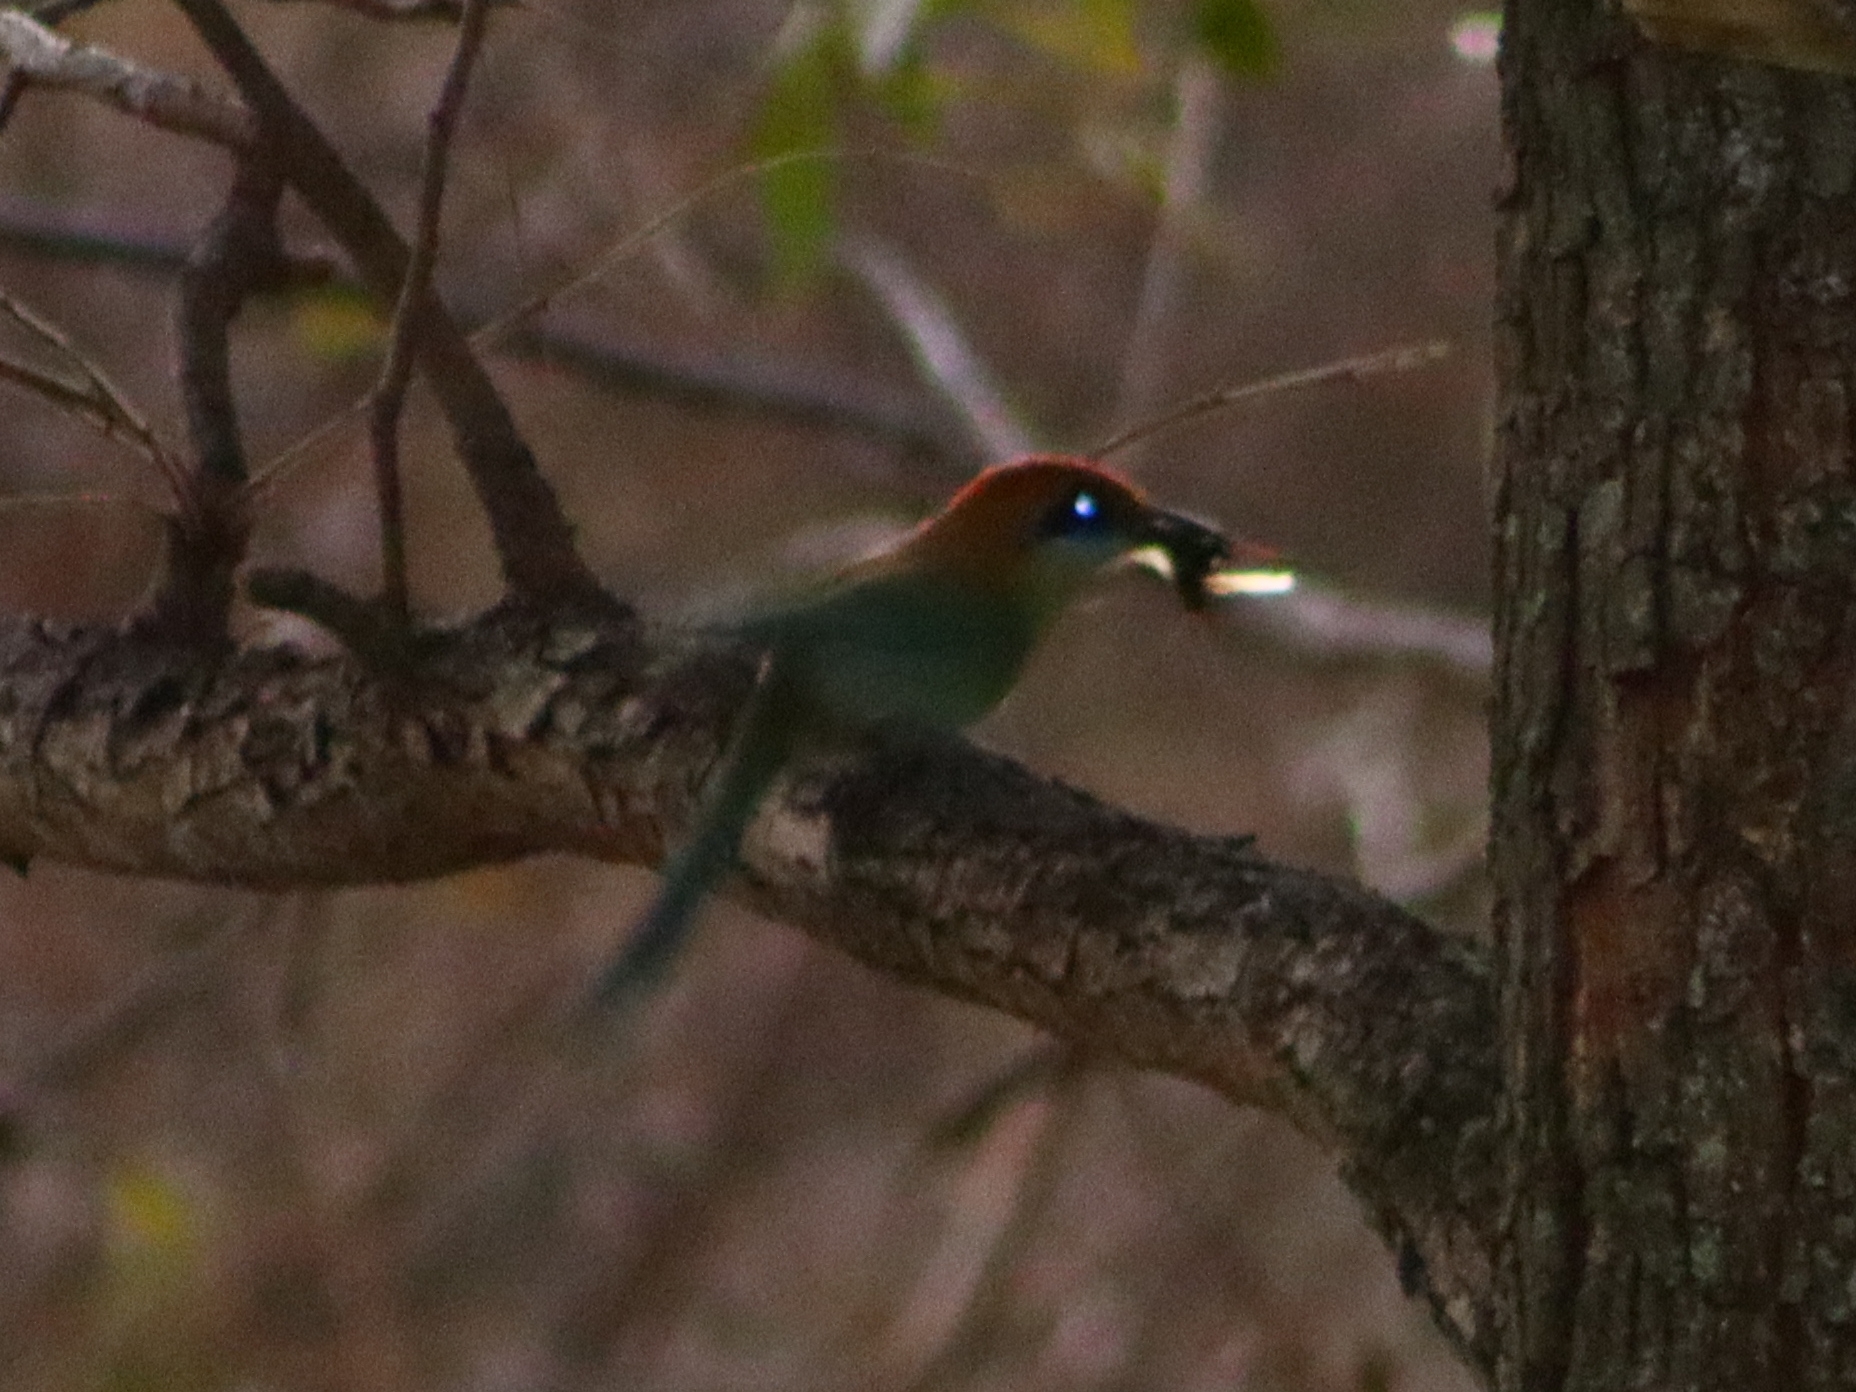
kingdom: Animalia
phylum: Chordata
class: Aves
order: Coraciiformes
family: Momotidae
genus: Momotus
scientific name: Momotus mexicanus
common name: Russet-crowned motmot
